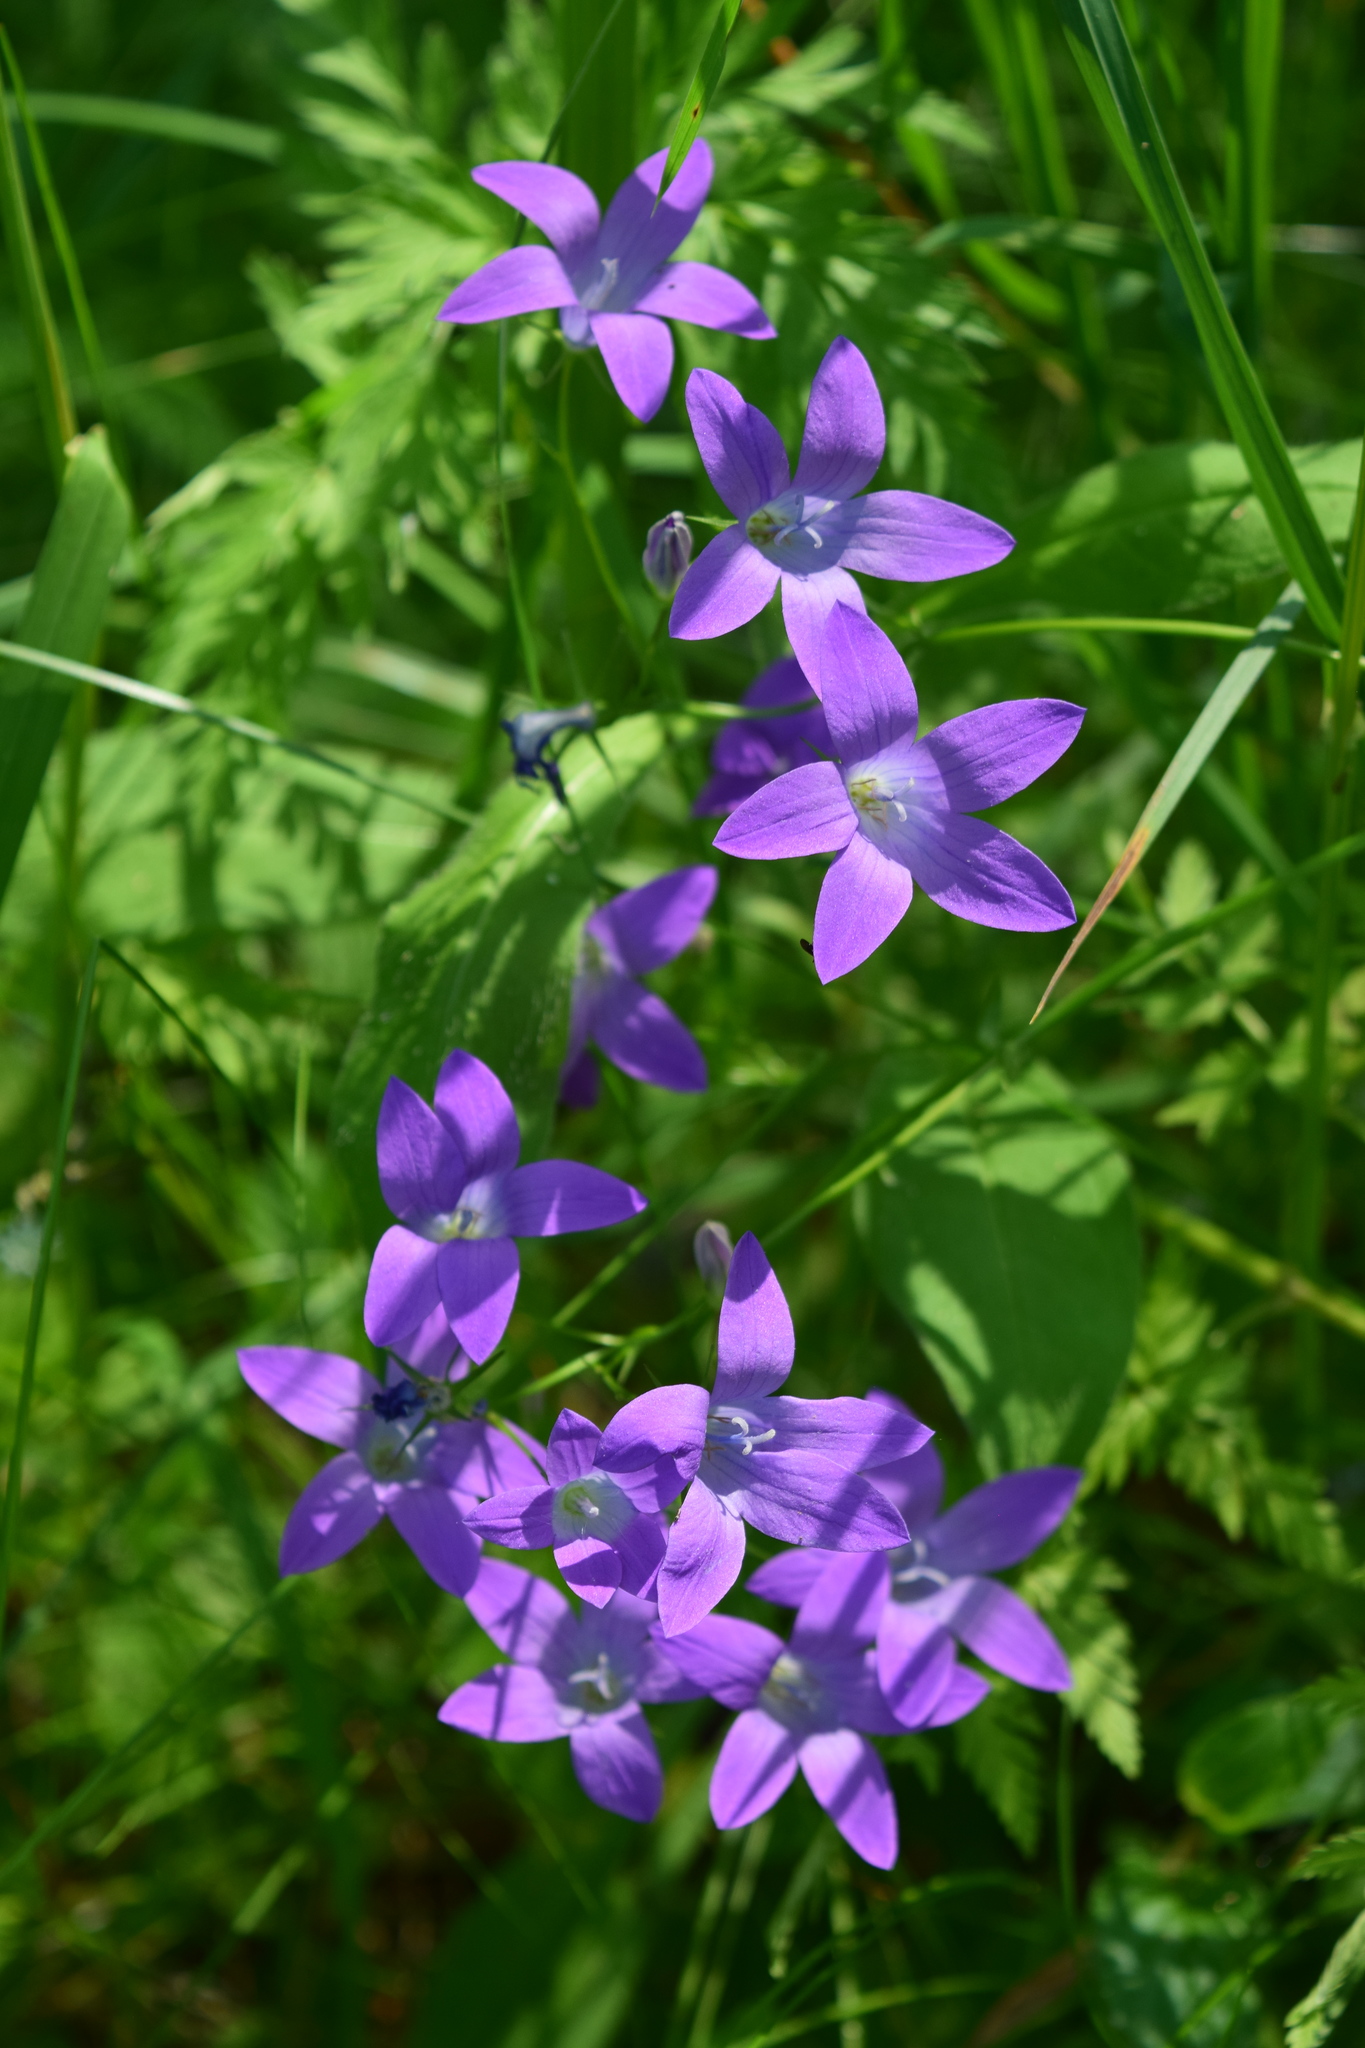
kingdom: Plantae
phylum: Tracheophyta
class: Magnoliopsida
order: Asterales
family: Campanulaceae
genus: Campanula
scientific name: Campanula patula
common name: Spreading bellflower
